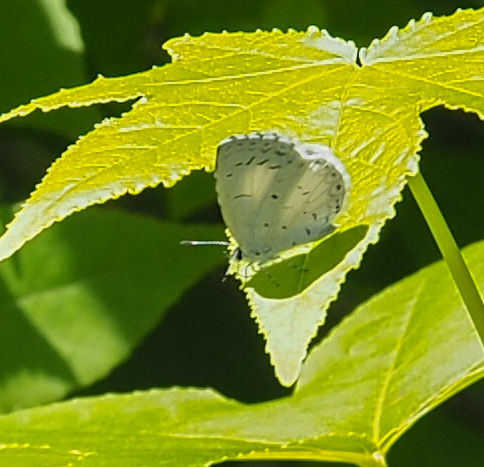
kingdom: Animalia
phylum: Arthropoda
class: Insecta
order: Lepidoptera
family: Lycaenidae
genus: Cyaniris
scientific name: Cyaniris neglecta
